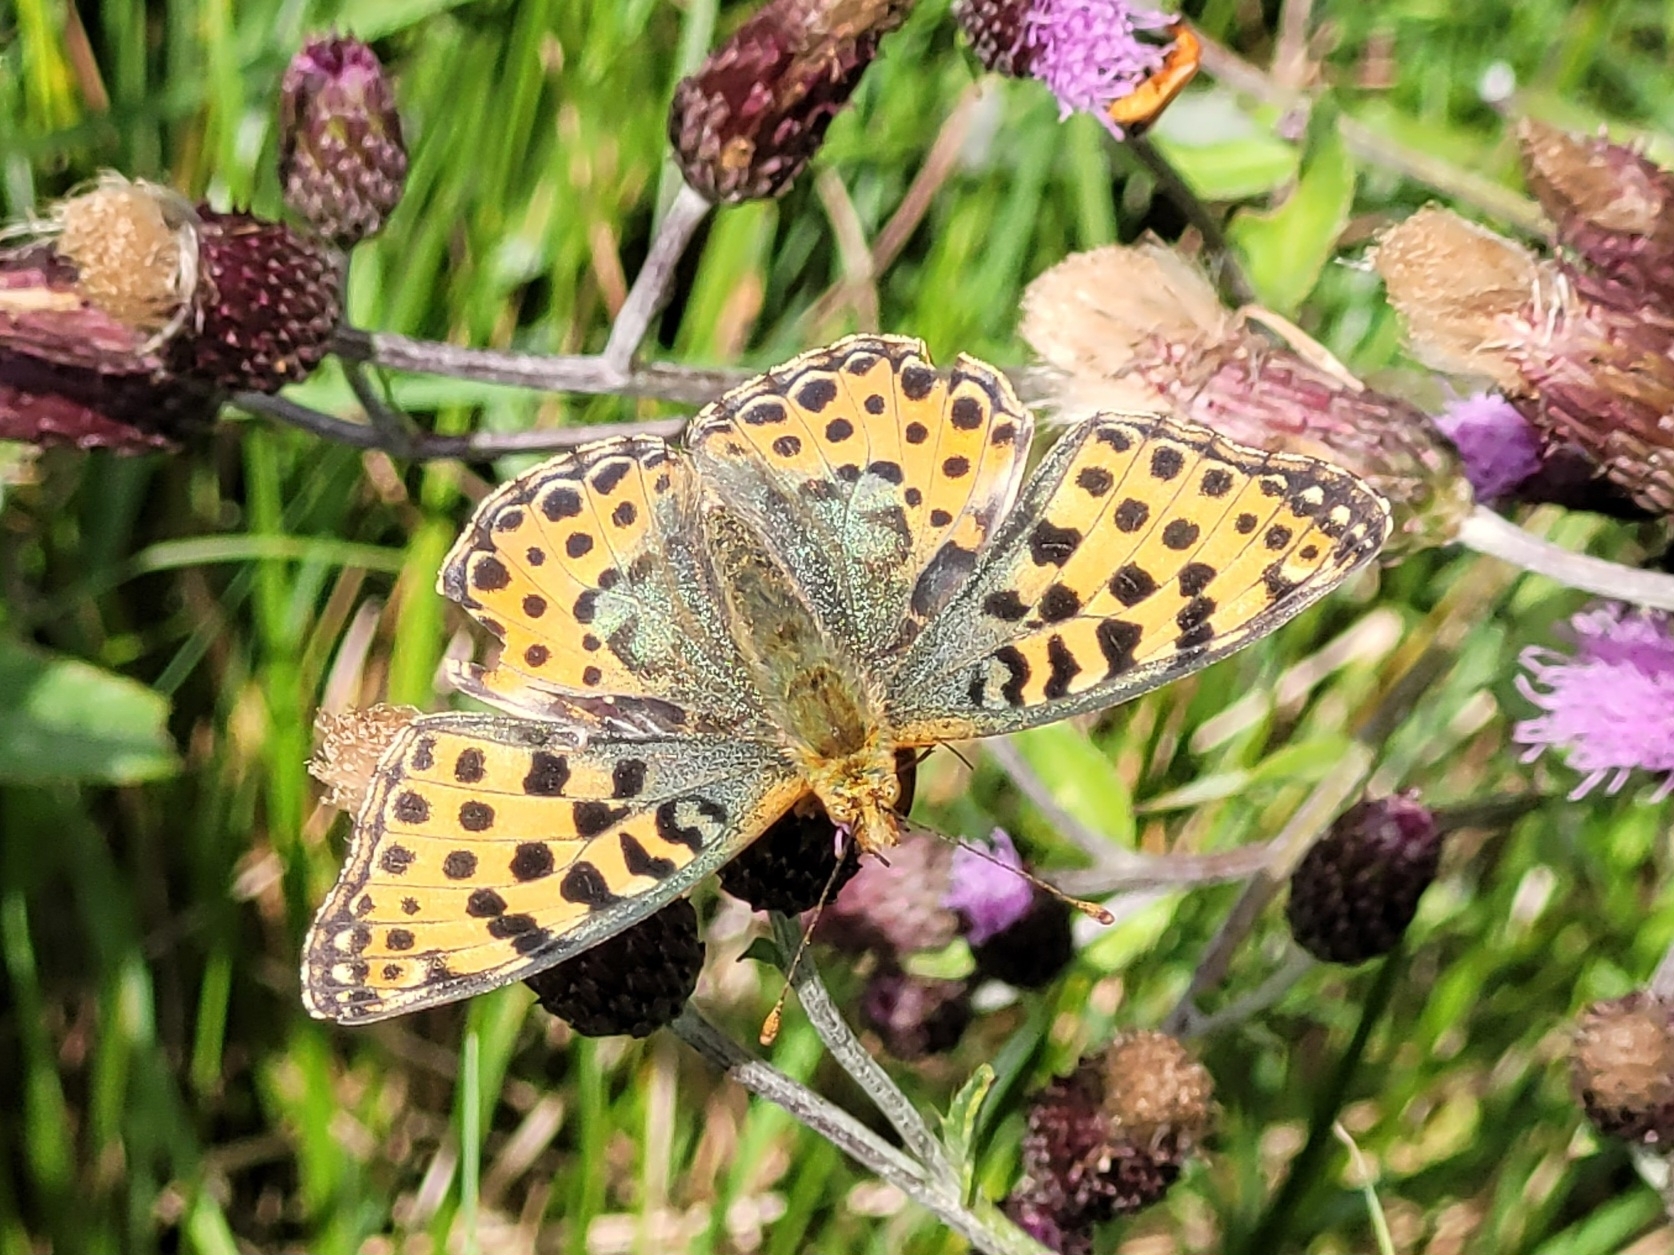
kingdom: Animalia
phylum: Arthropoda
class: Insecta
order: Lepidoptera
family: Nymphalidae
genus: Issoria
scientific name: Issoria lathonia
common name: Queen of spain fritillary
